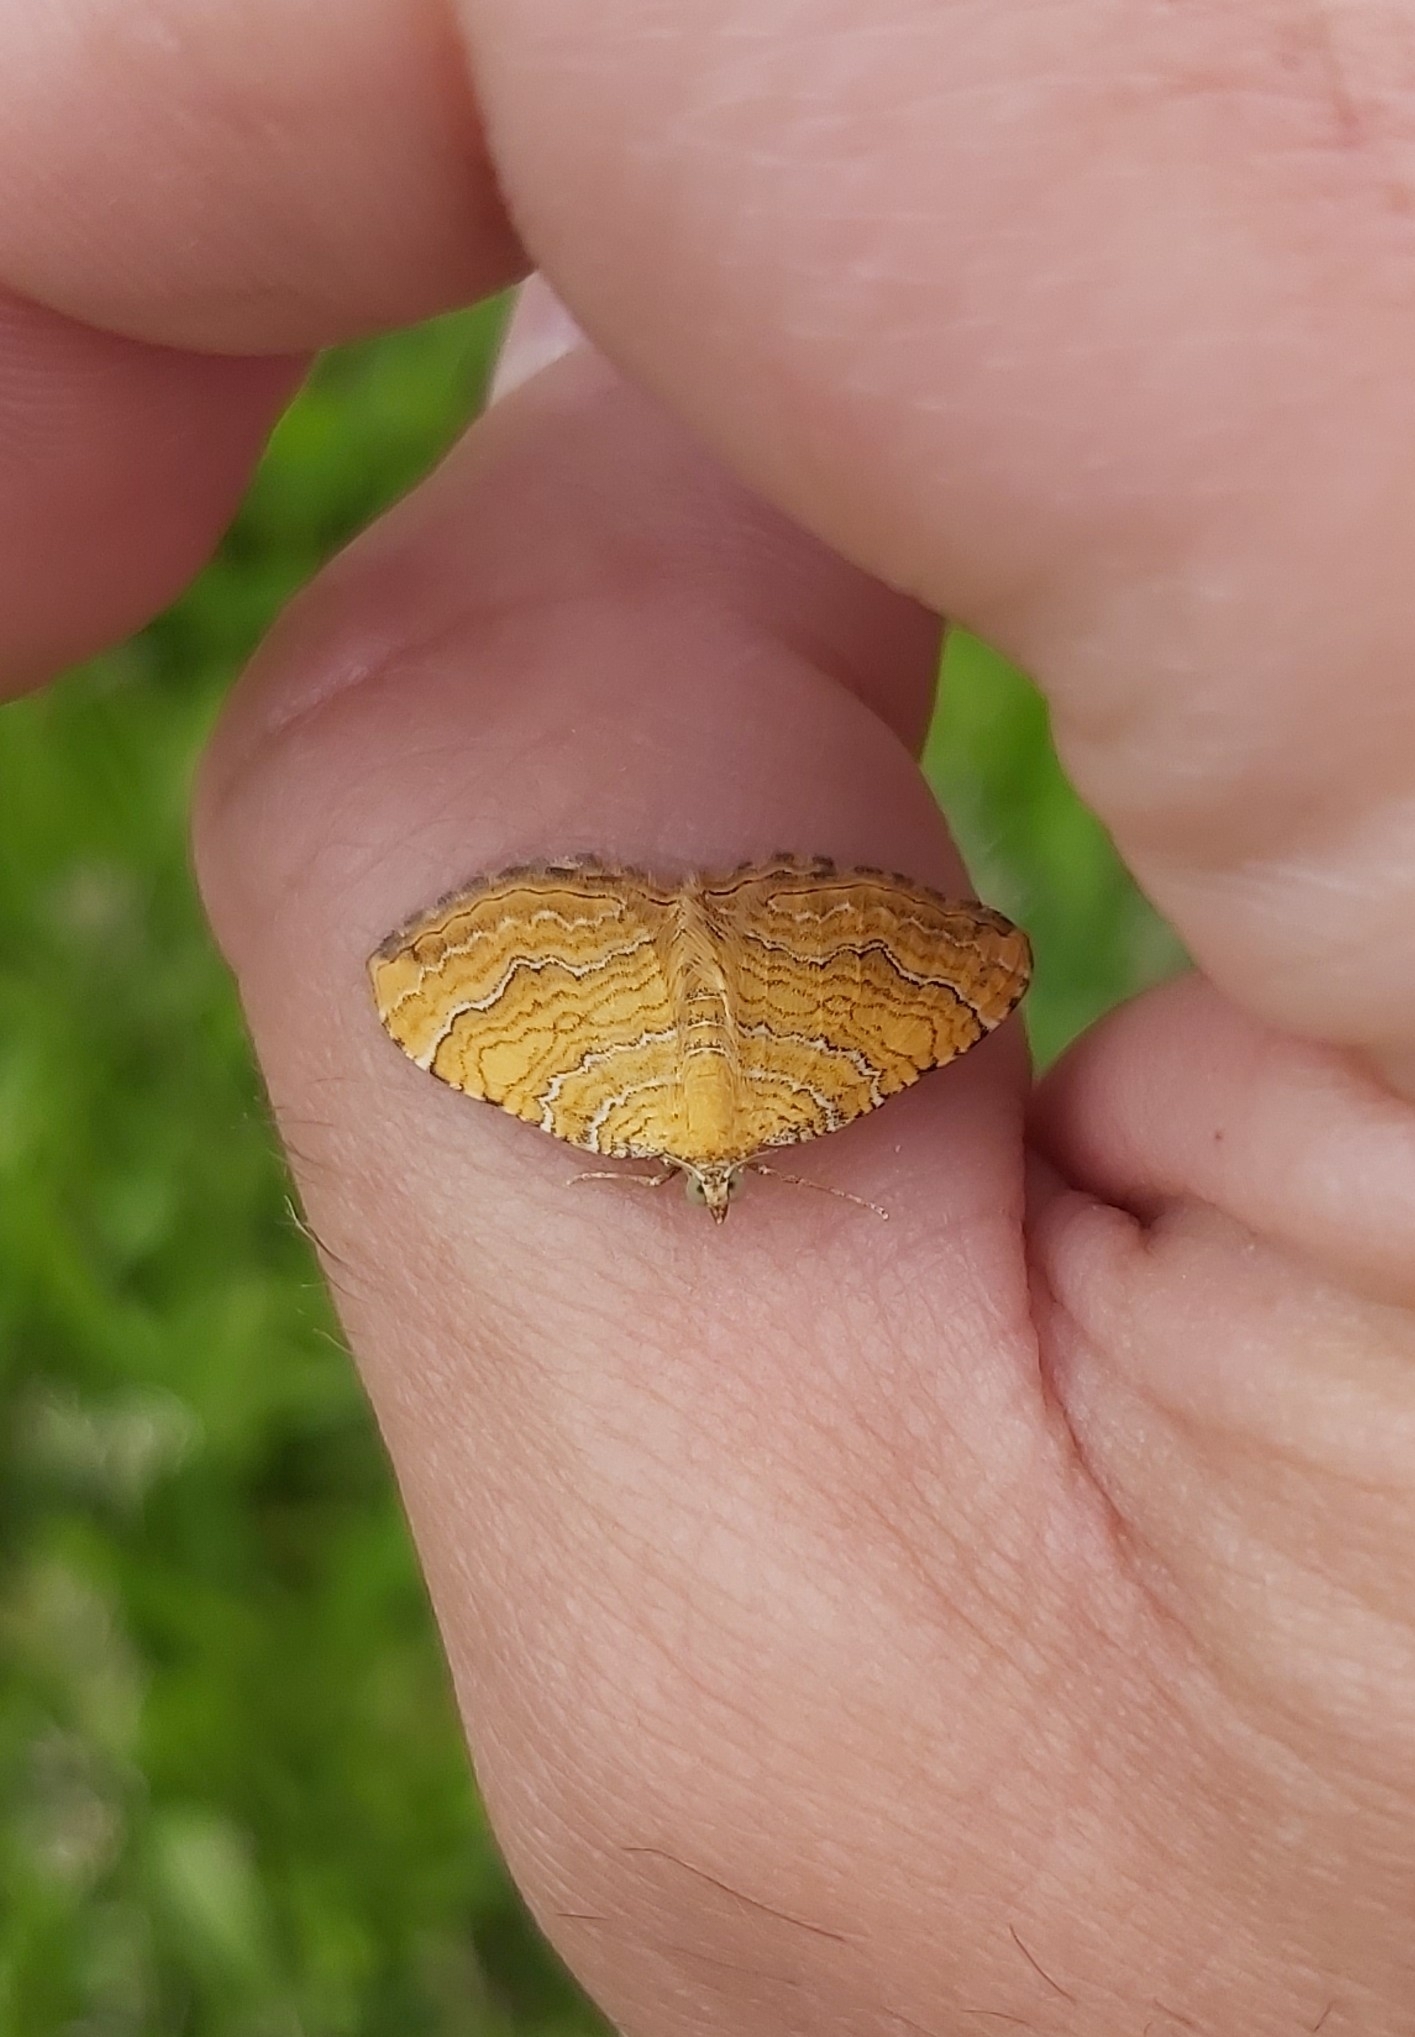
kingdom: Animalia
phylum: Arthropoda
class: Insecta
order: Lepidoptera
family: Geometridae
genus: Camptogramma
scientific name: Camptogramma bilineata
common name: Yellow shell
